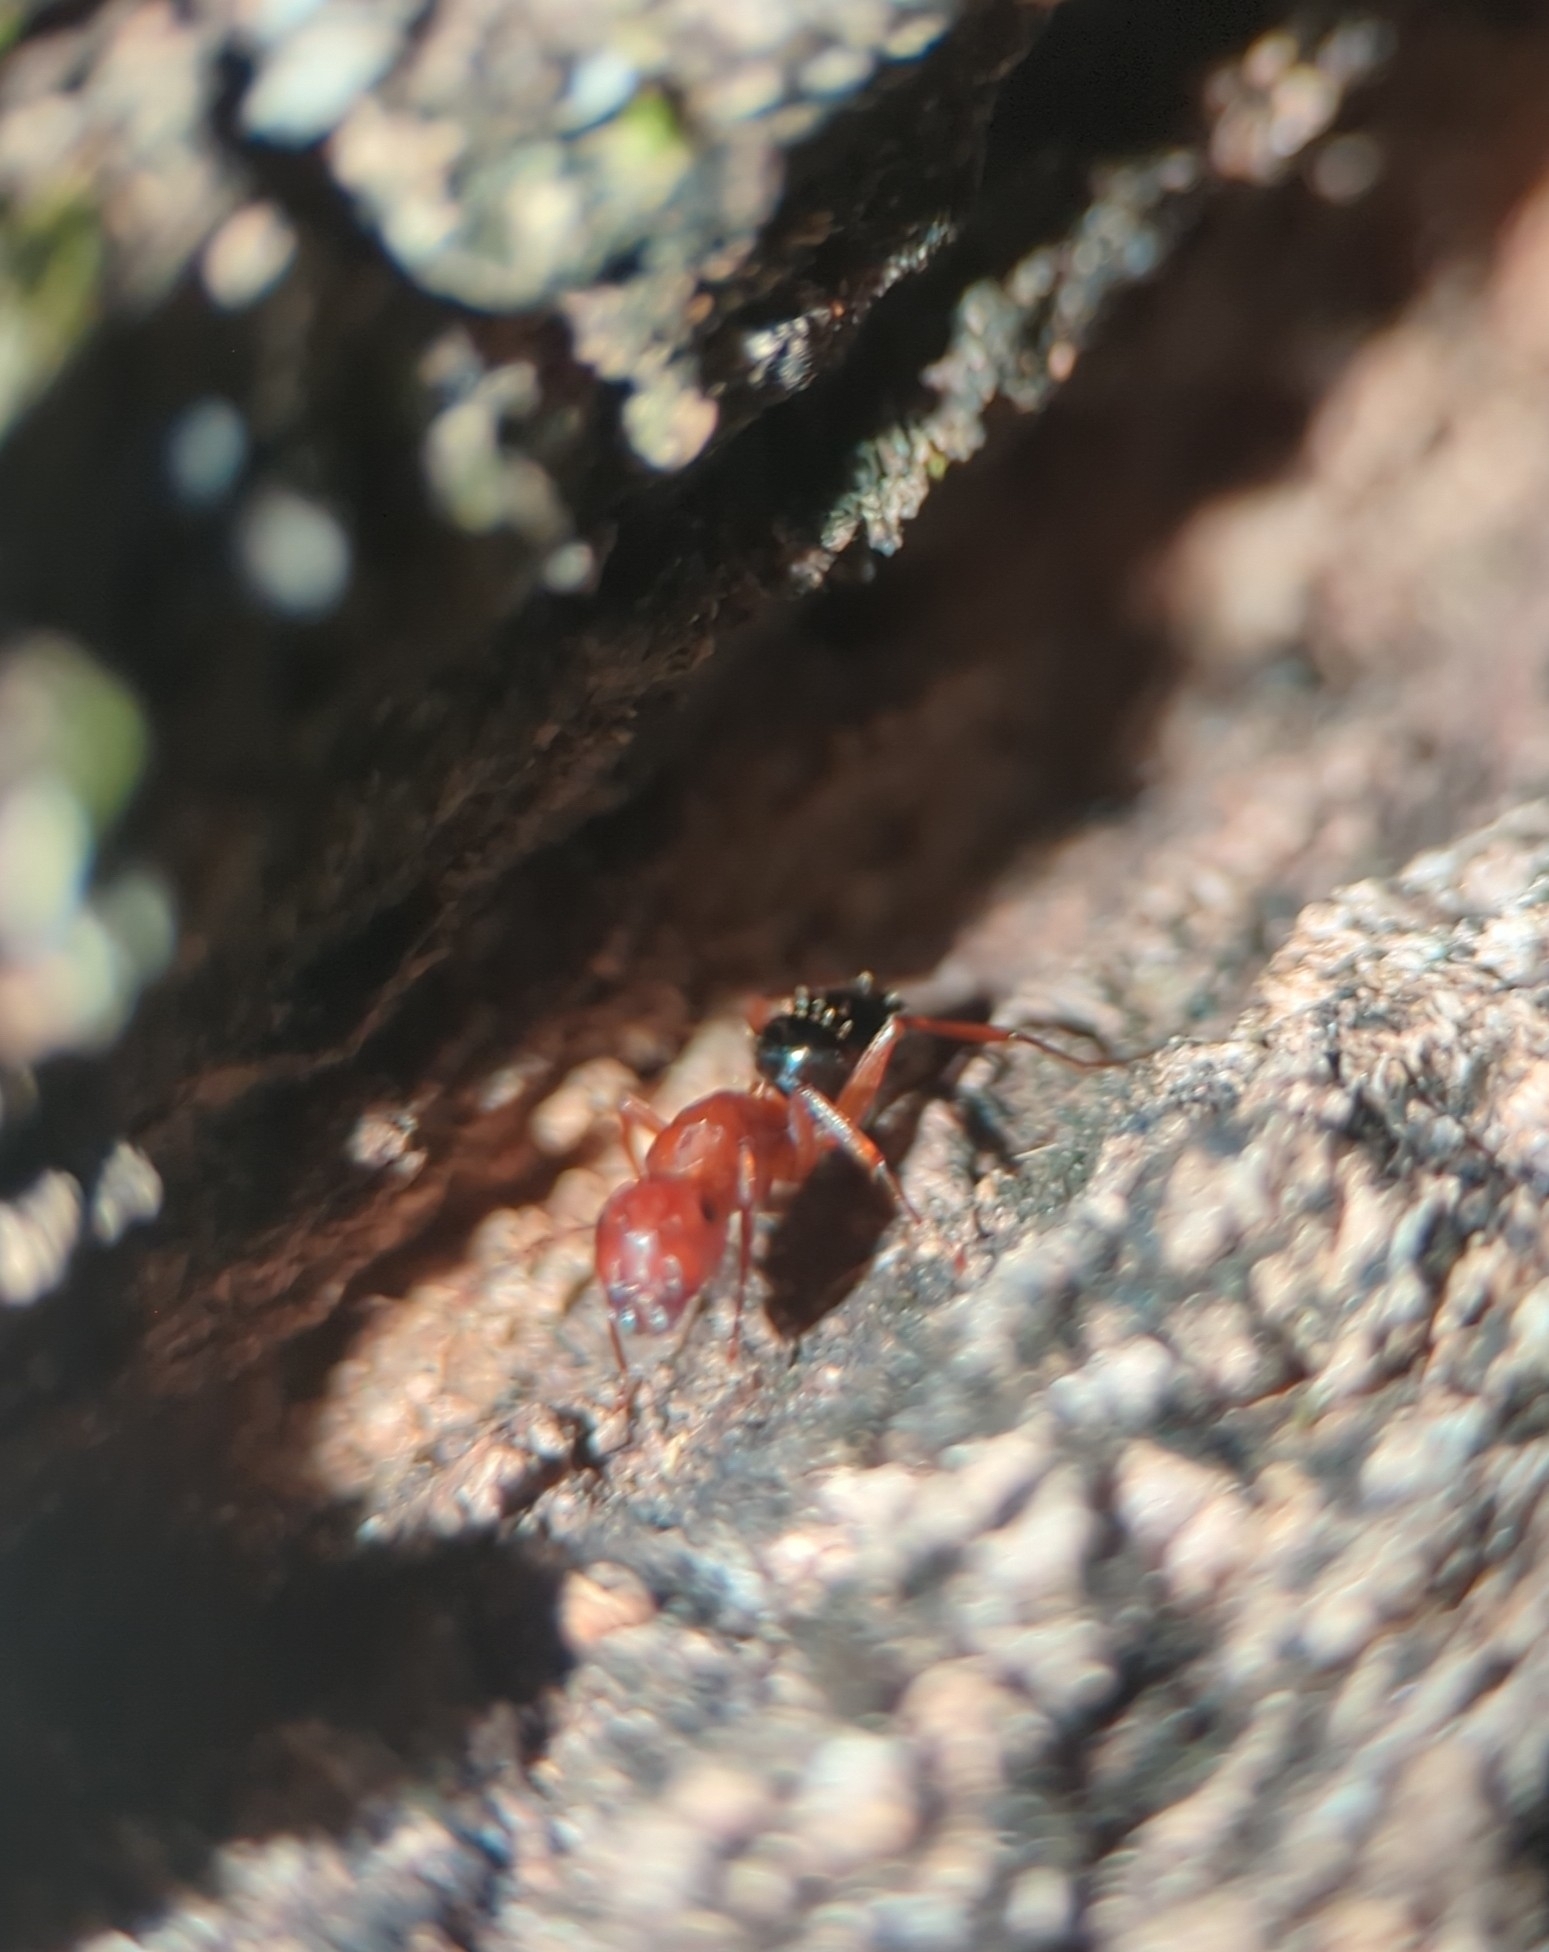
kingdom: Animalia
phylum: Arthropoda
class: Insecta
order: Hymenoptera
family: Formicidae
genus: Camponotus
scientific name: Camponotus decipiens
